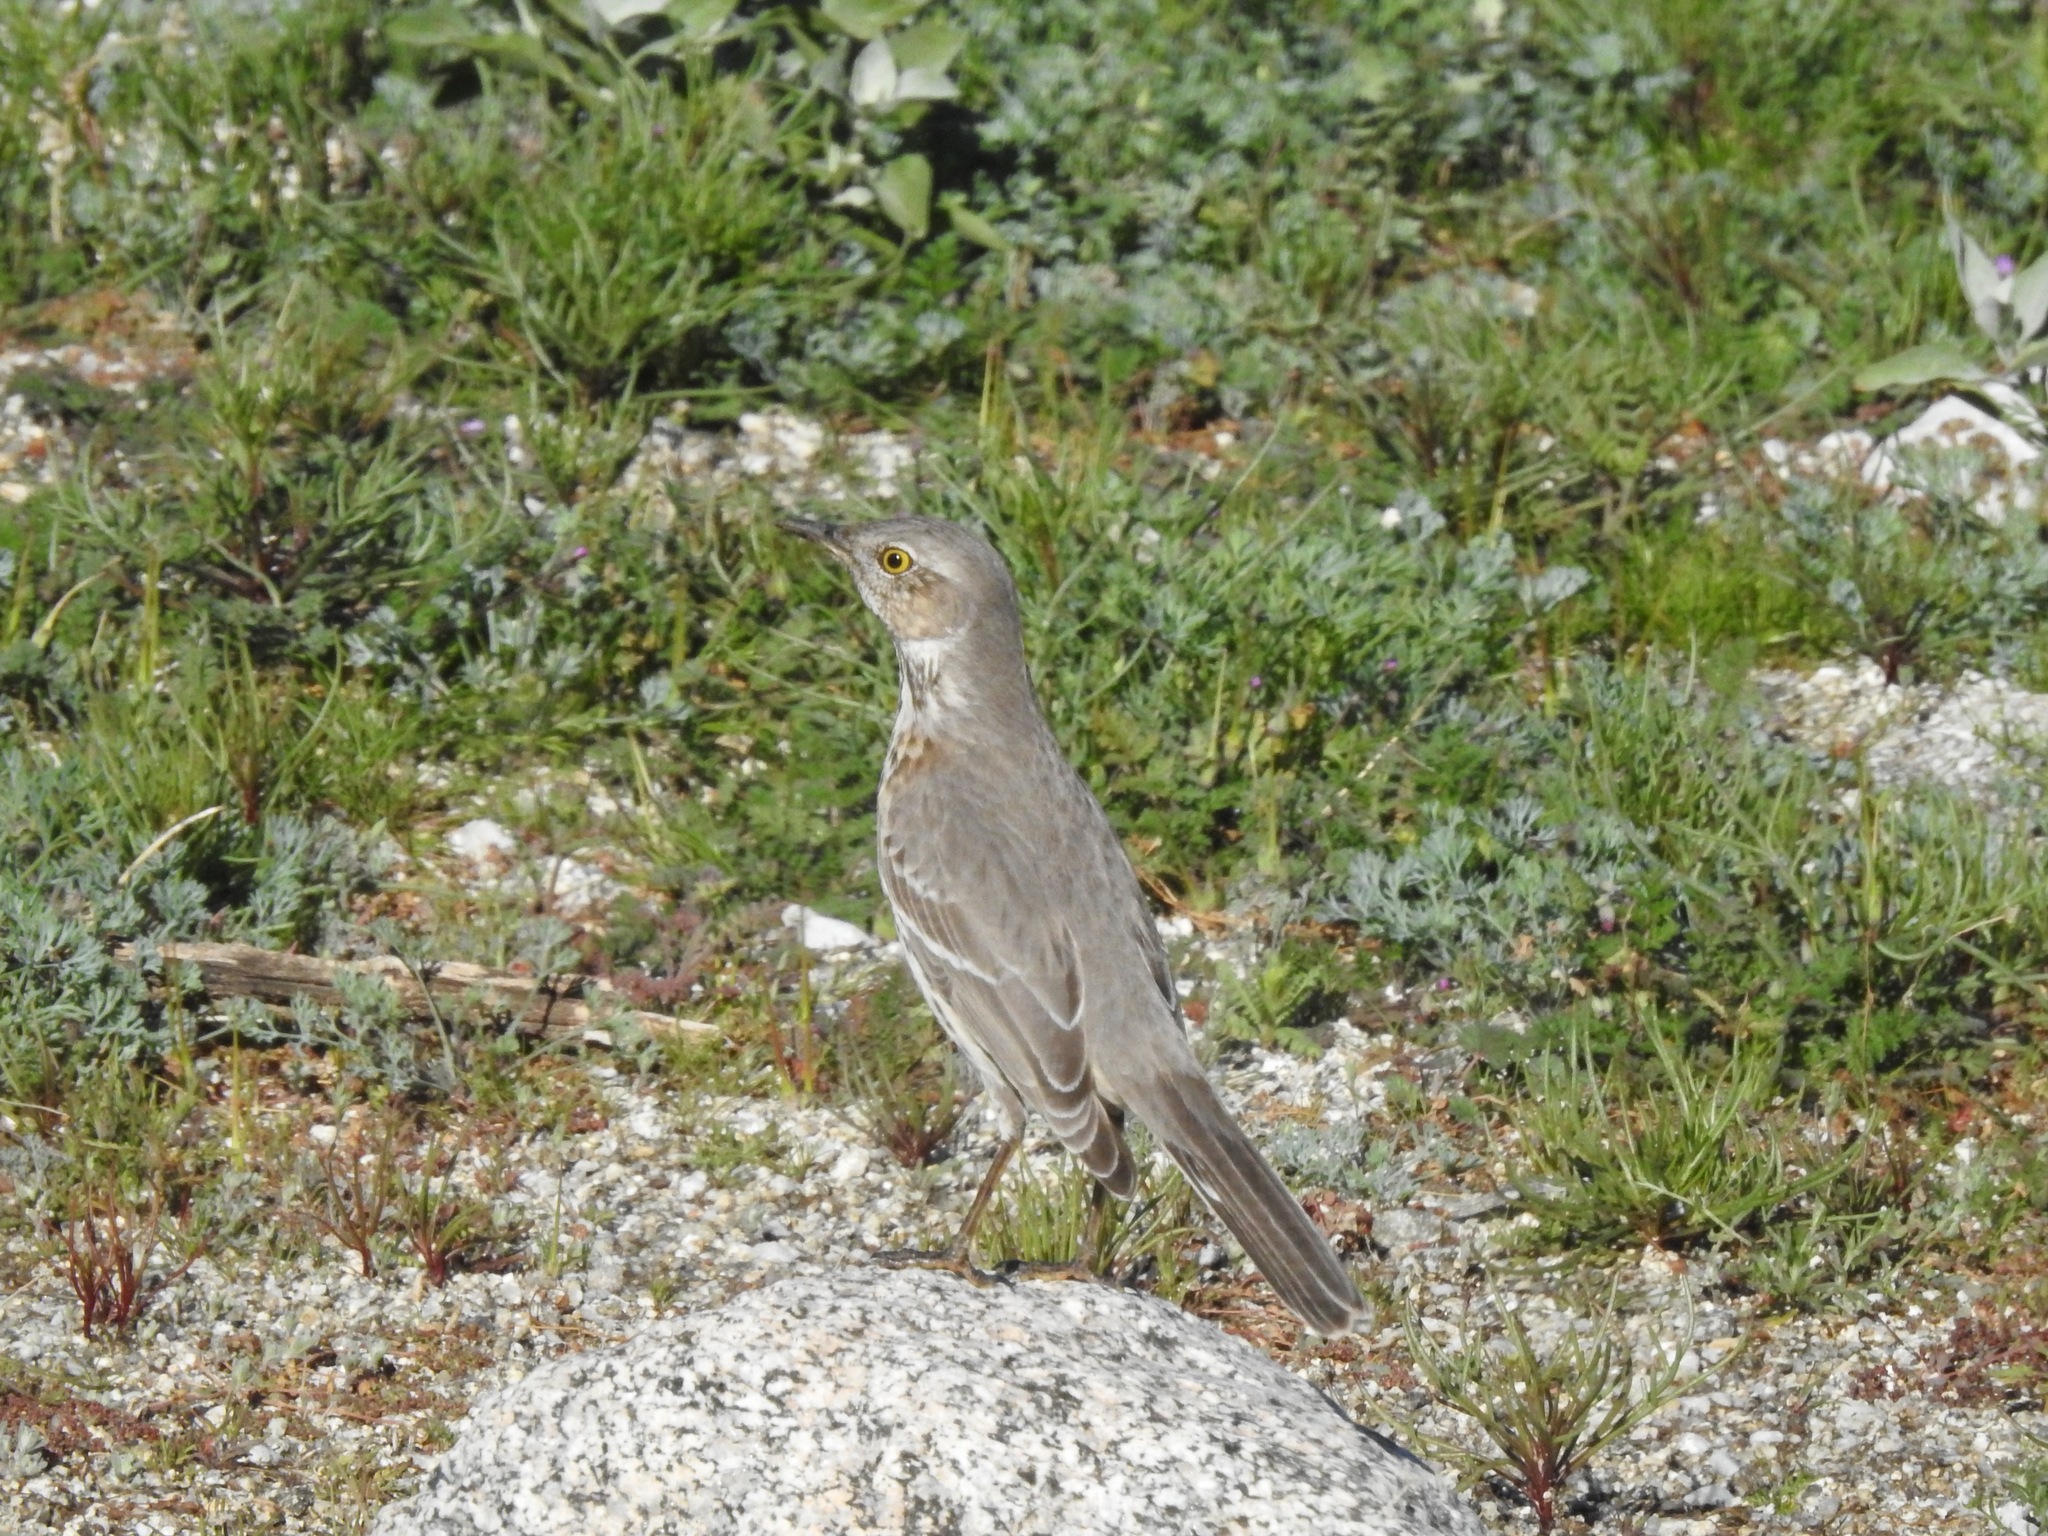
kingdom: Animalia
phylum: Chordata
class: Aves
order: Passeriformes
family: Mimidae
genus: Oreoscoptes
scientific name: Oreoscoptes montanus
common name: Sage thrasher
